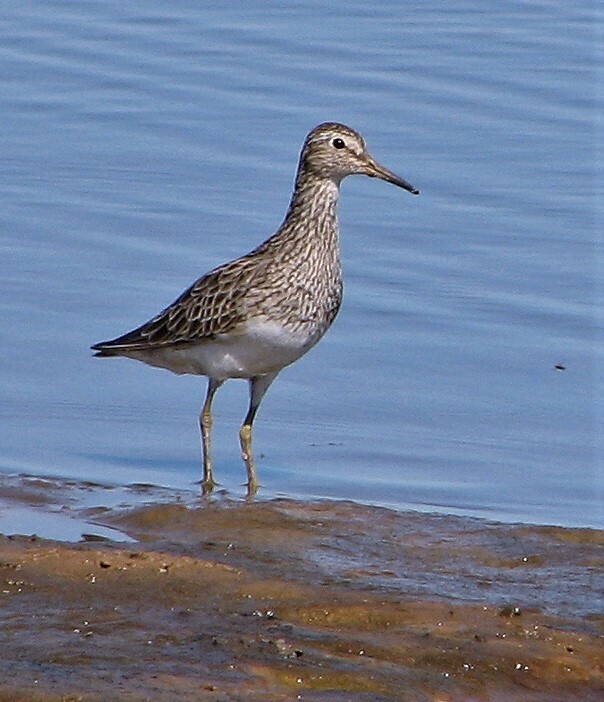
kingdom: Animalia
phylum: Chordata
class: Aves
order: Charadriiformes
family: Scolopacidae
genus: Calidris
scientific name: Calidris melanotos
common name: Pectoral sandpiper
